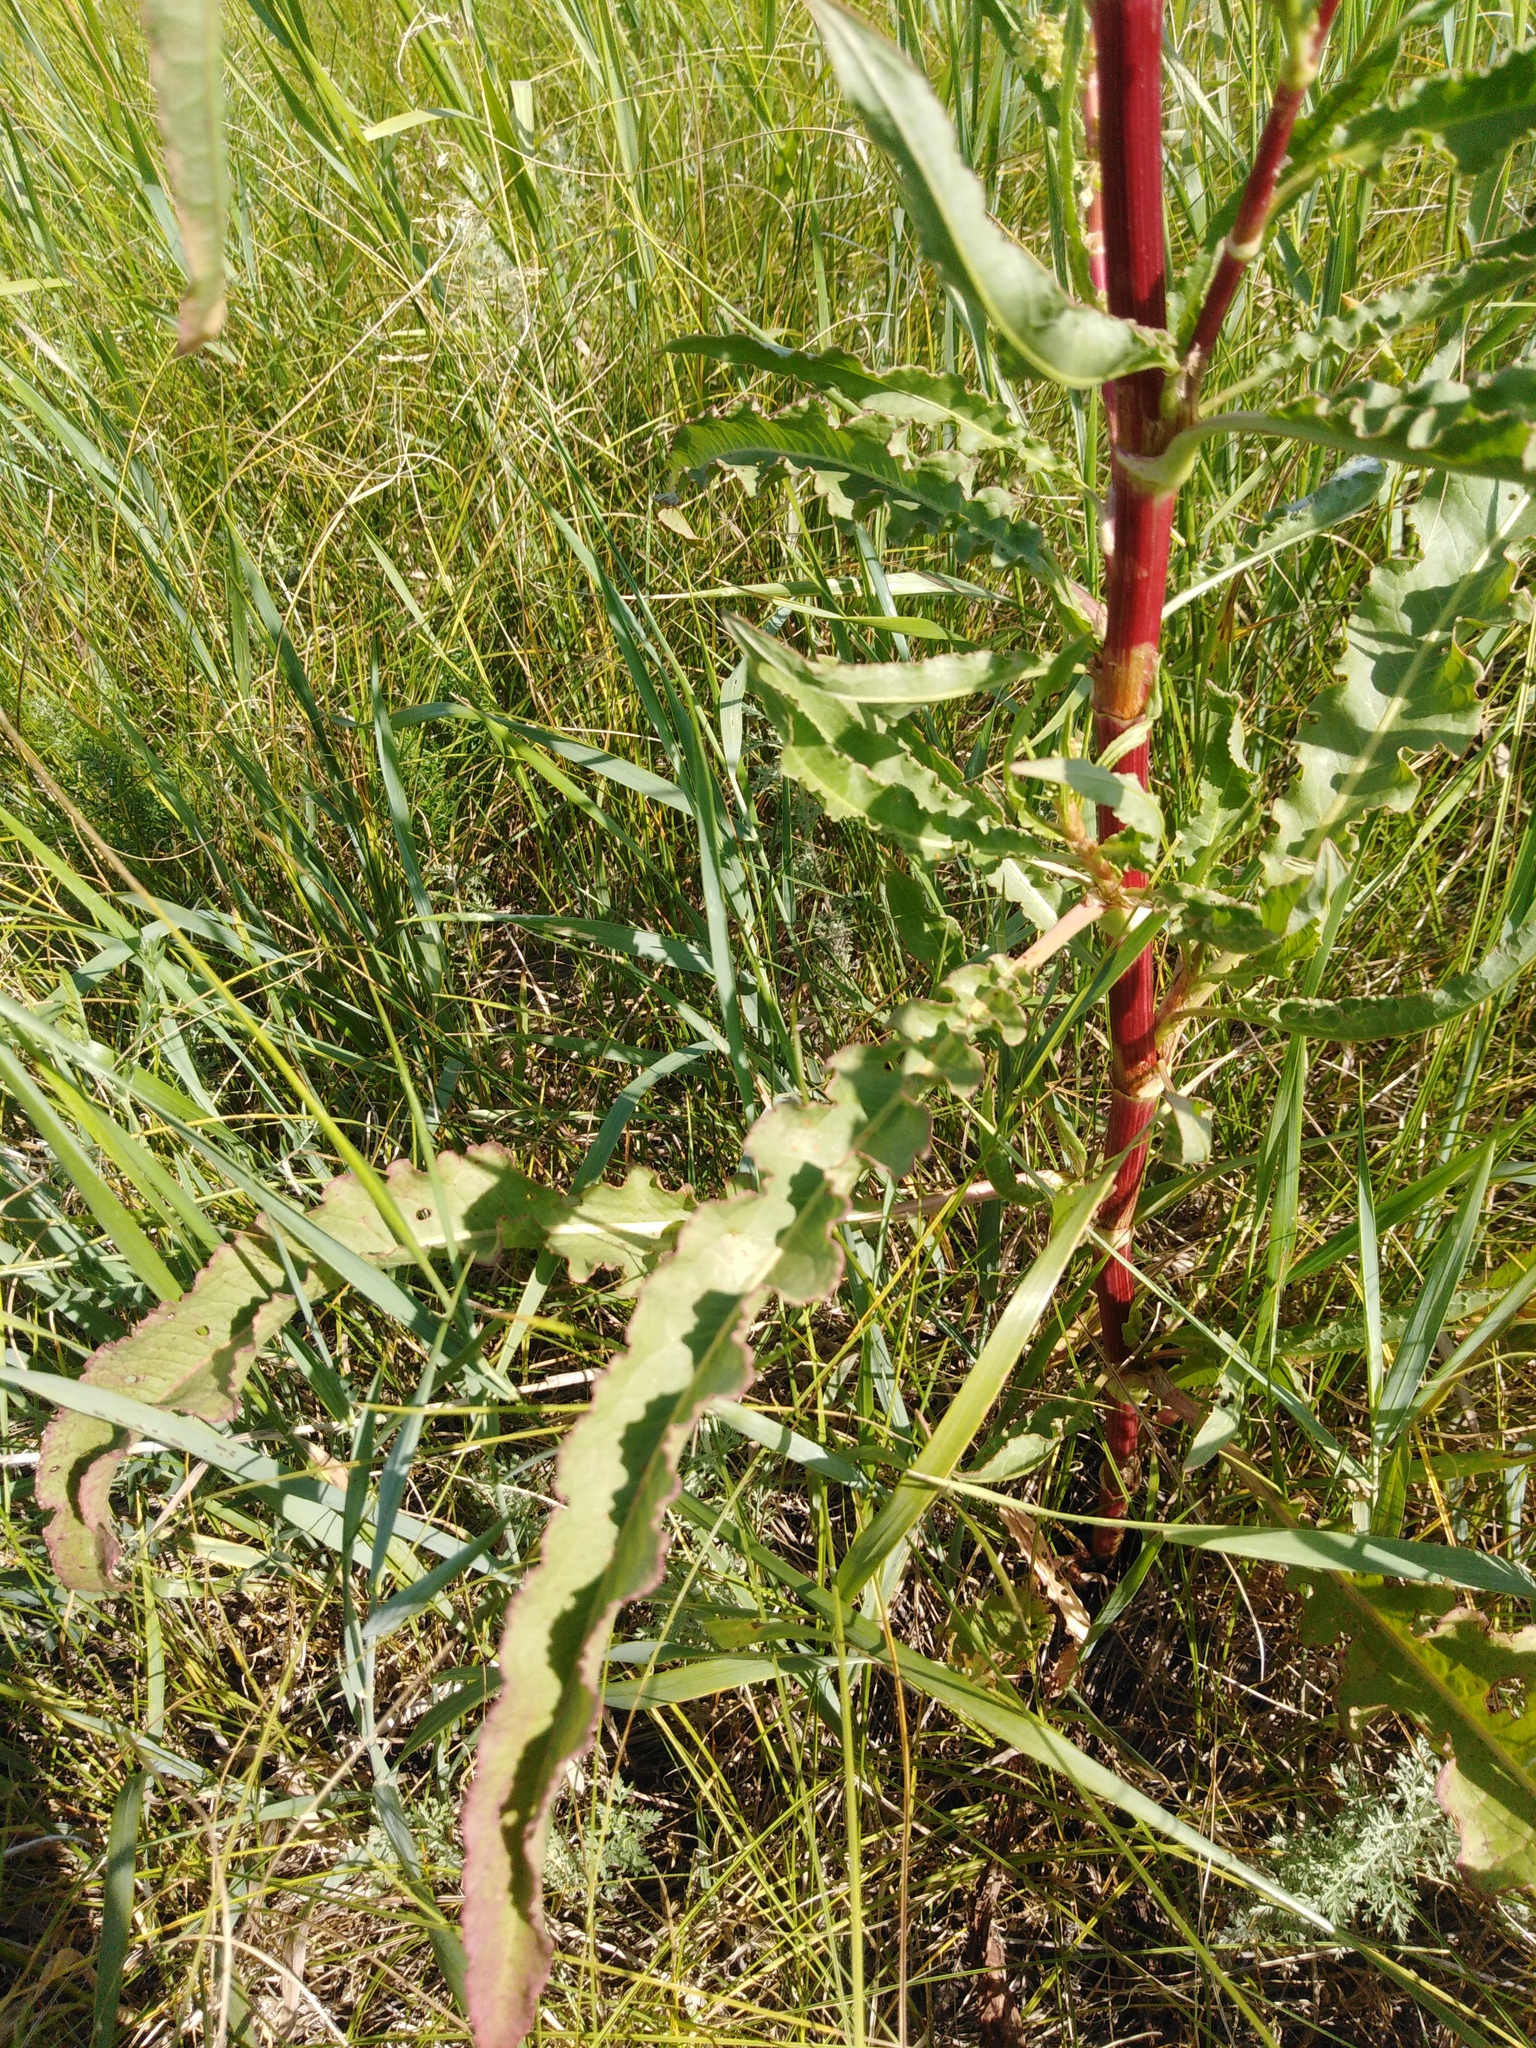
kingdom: Plantae
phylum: Tracheophyta
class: Magnoliopsida
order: Caryophyllales
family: Polygonaceae
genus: Rumex
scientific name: Rumex pseudonatronatus
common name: Field dock
